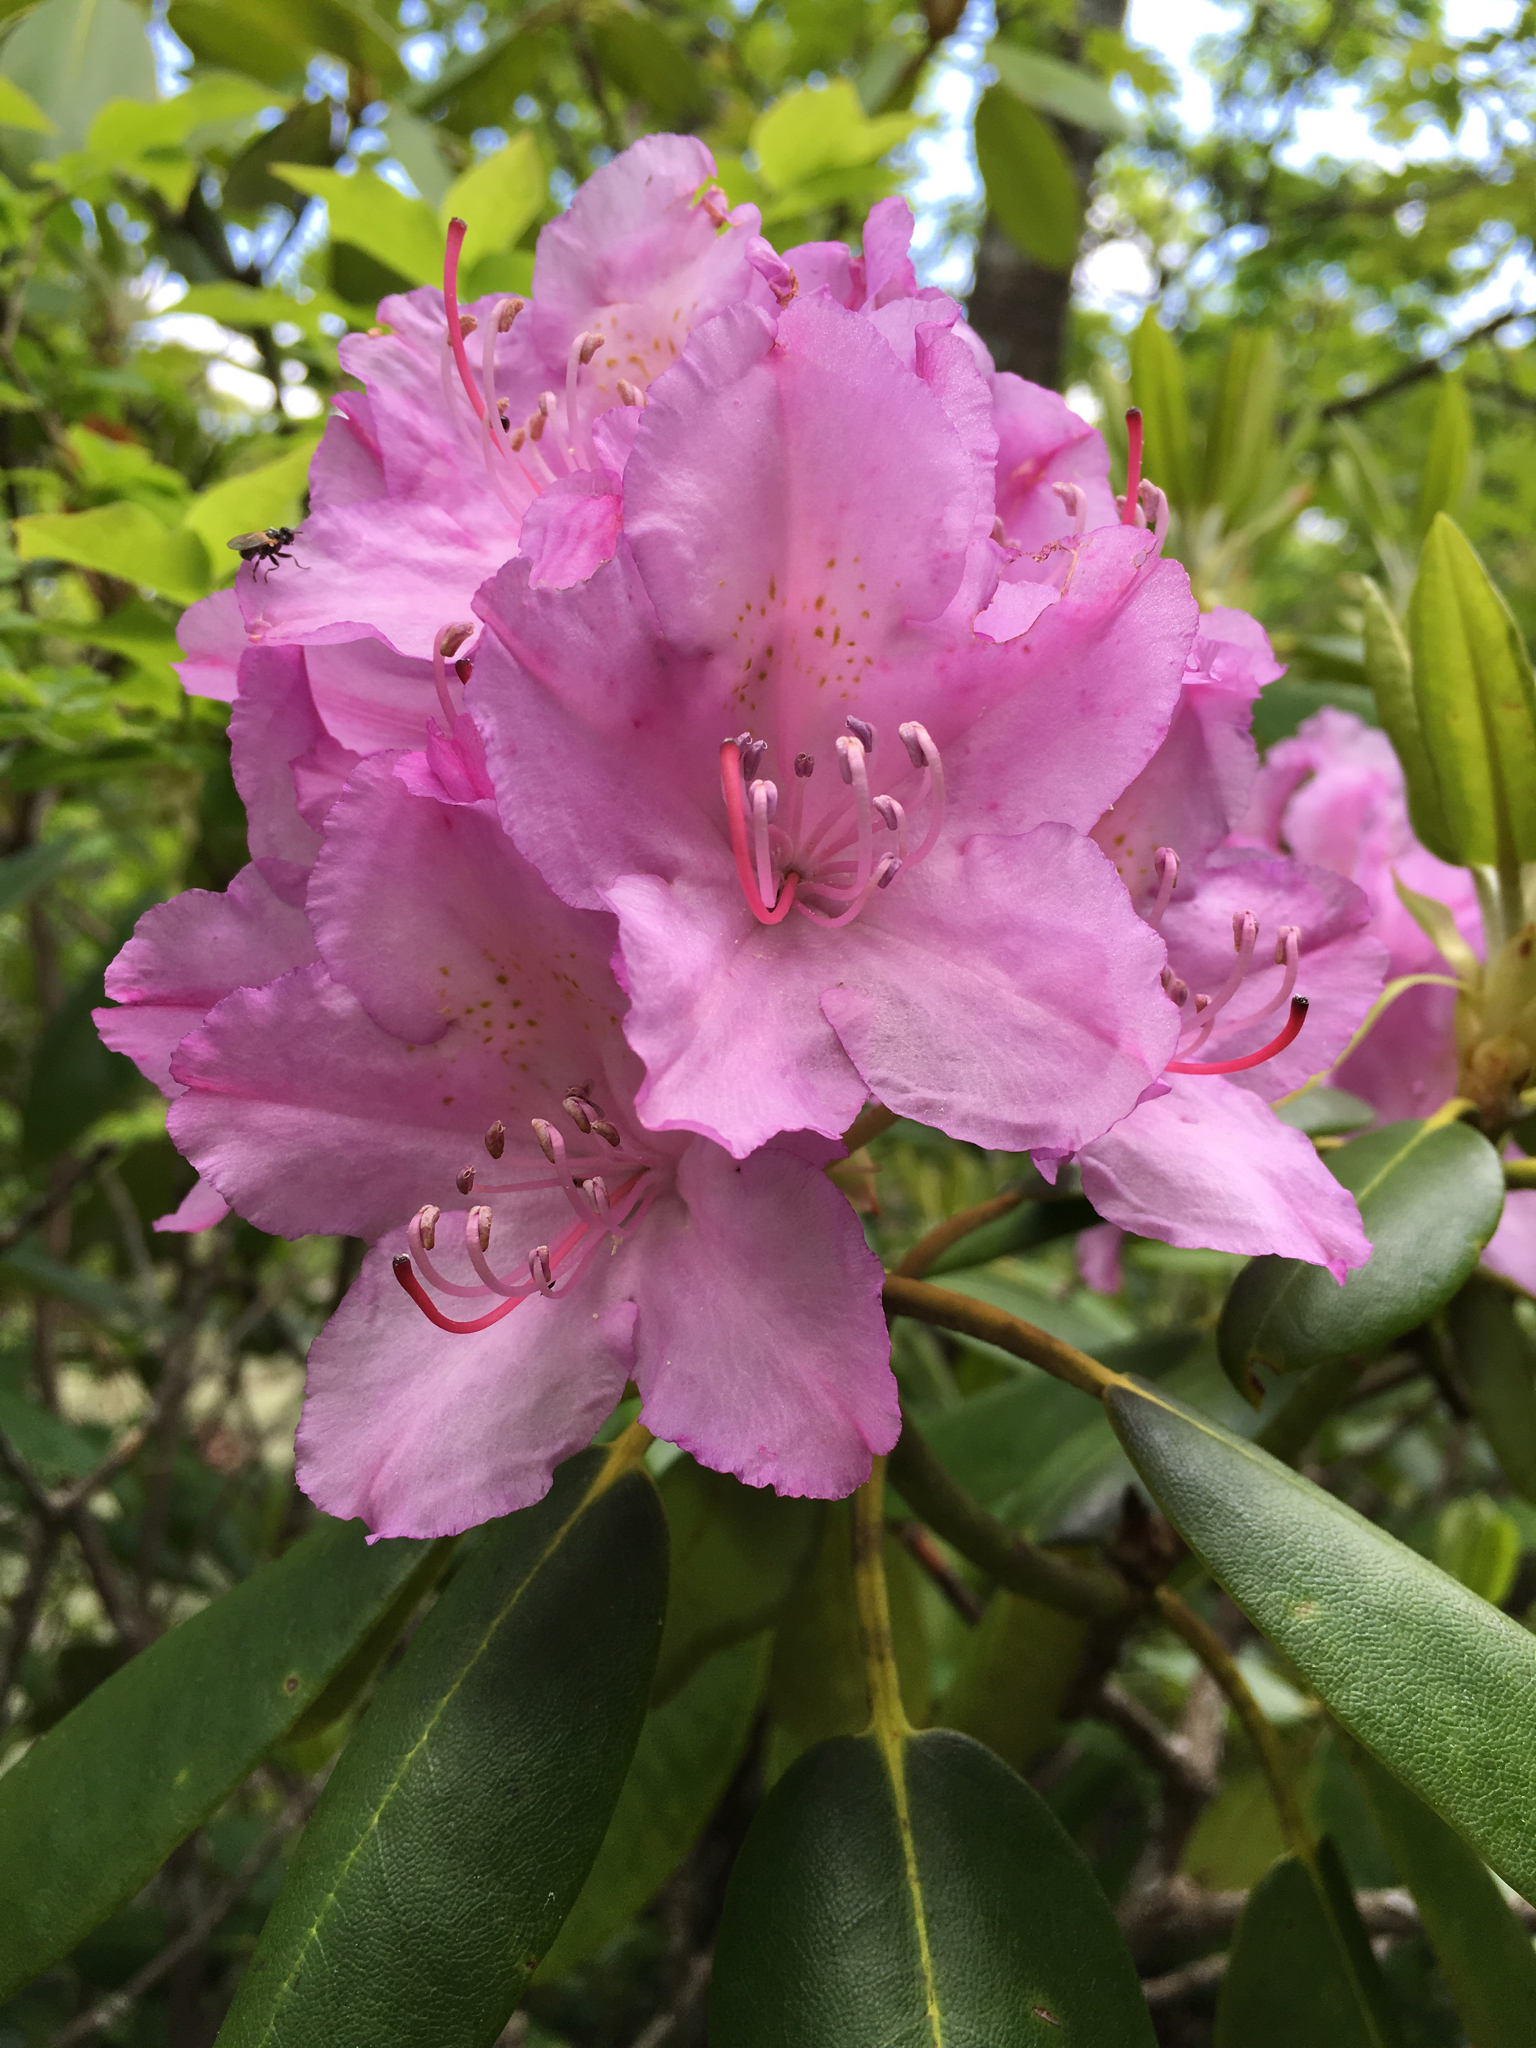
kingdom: Plantae
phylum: Tracheophyta
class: Magnoliopsida
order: Ericales
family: Ericaceae
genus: Rhododendron
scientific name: Rhododendron catawbiense
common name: Catawba rhododendron
